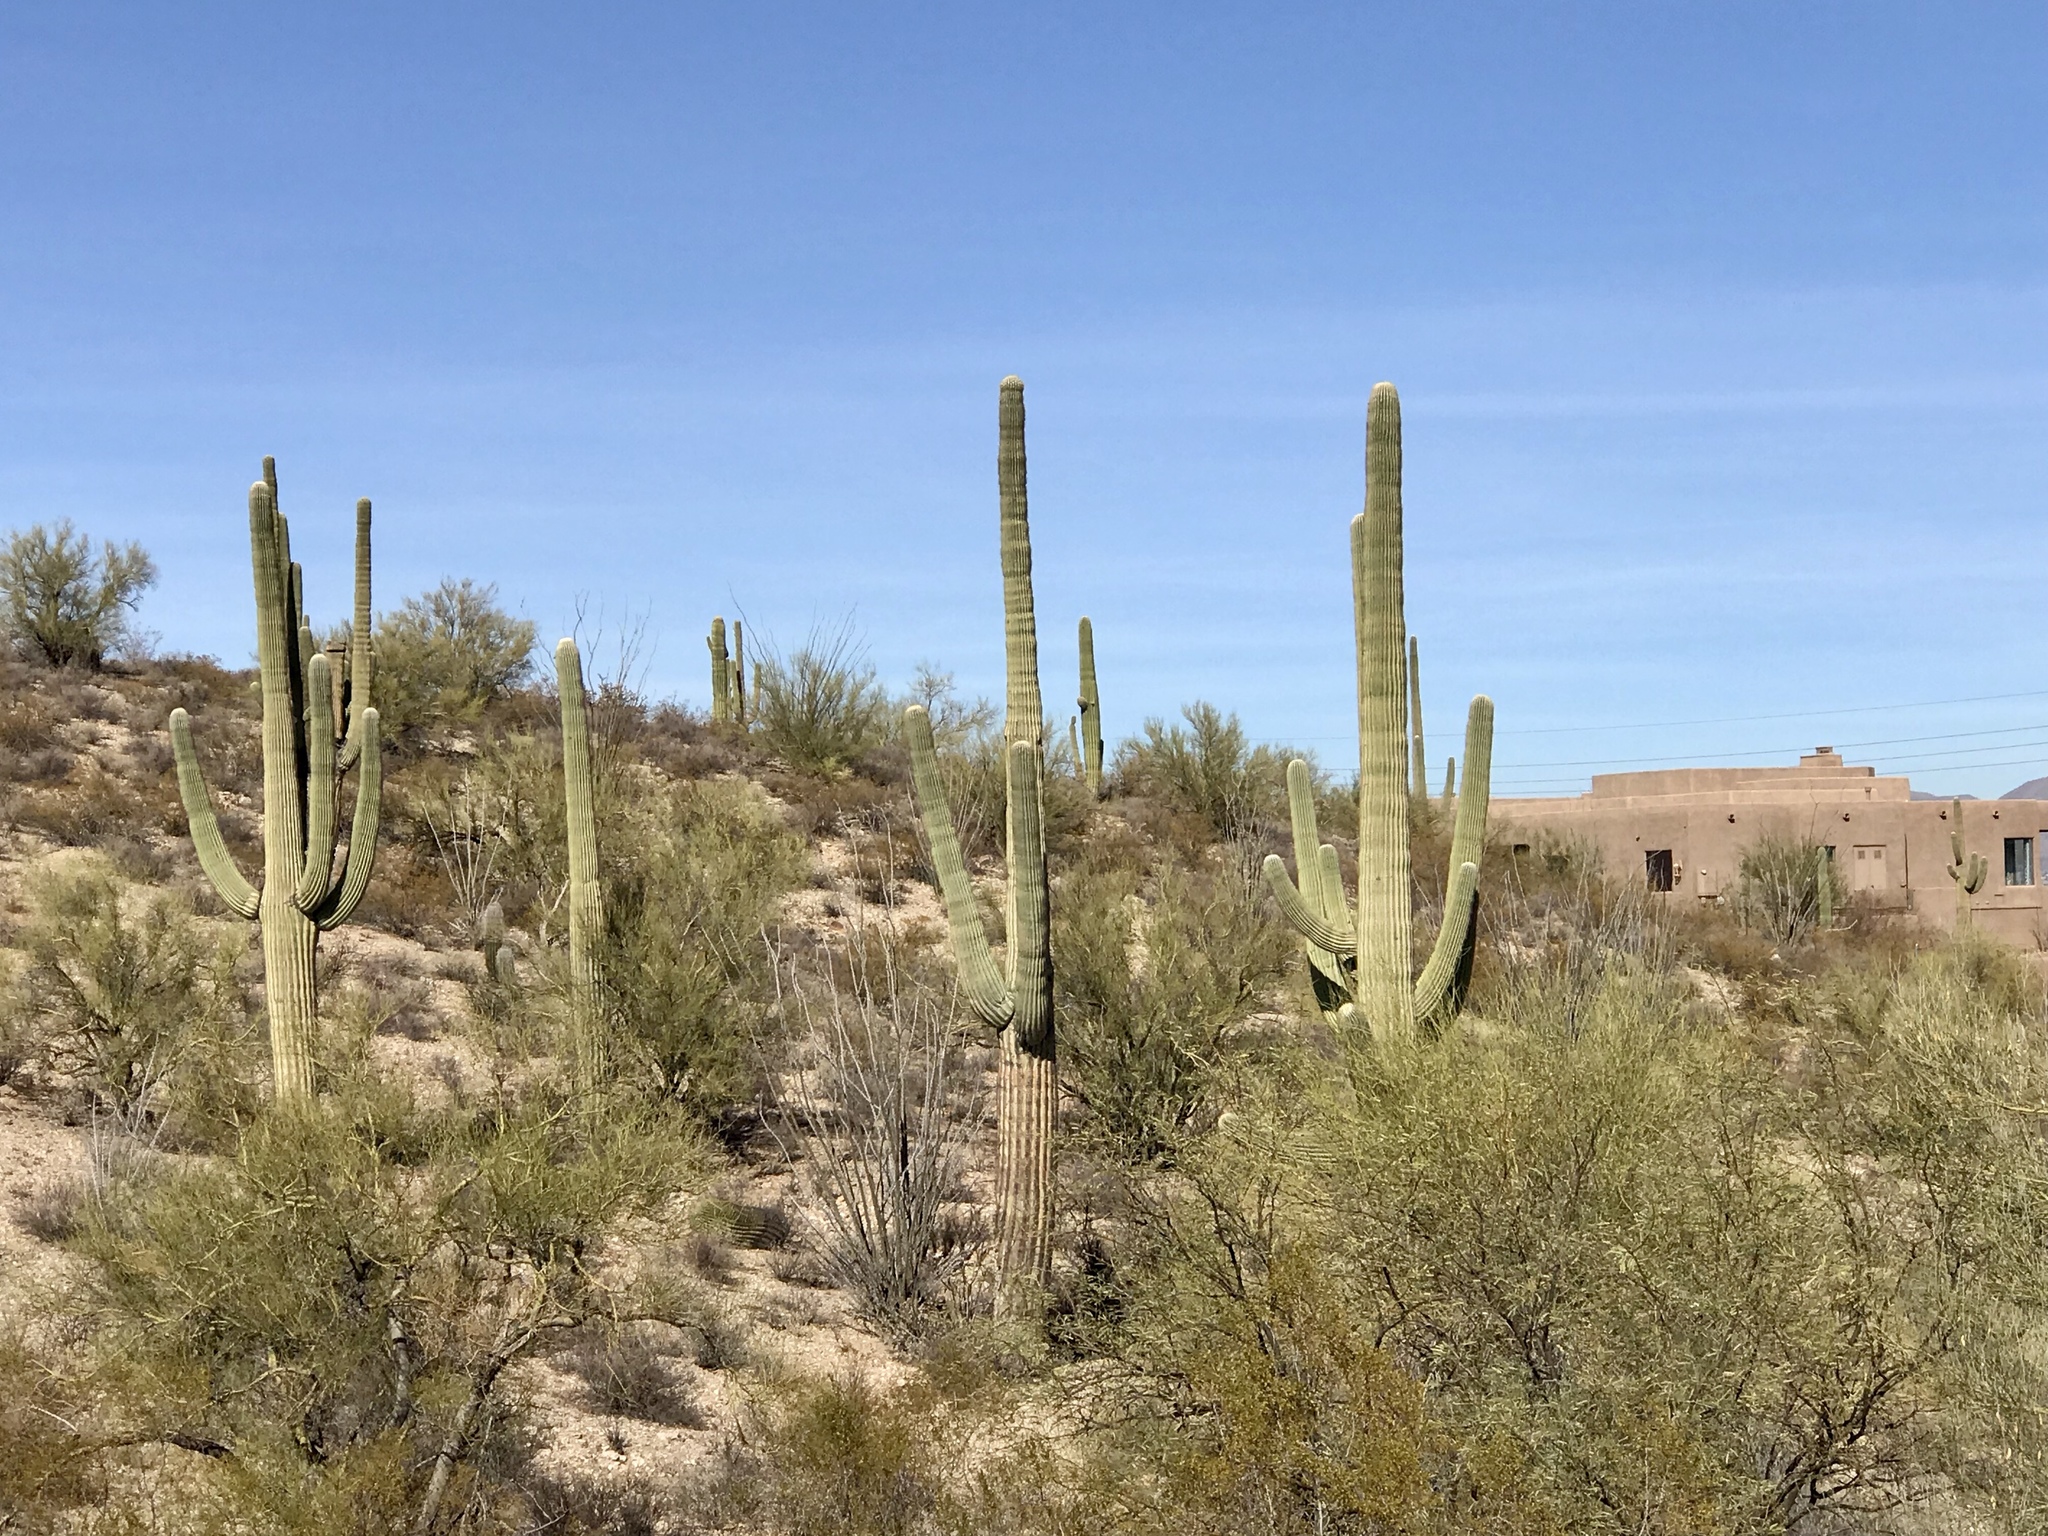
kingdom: Plantae
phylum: Tracheophyta
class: Magnoliopsida
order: Caryophyllales
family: Cactaceae
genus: Carnegiea
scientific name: Carnegiea gigantea
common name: Saguaro
